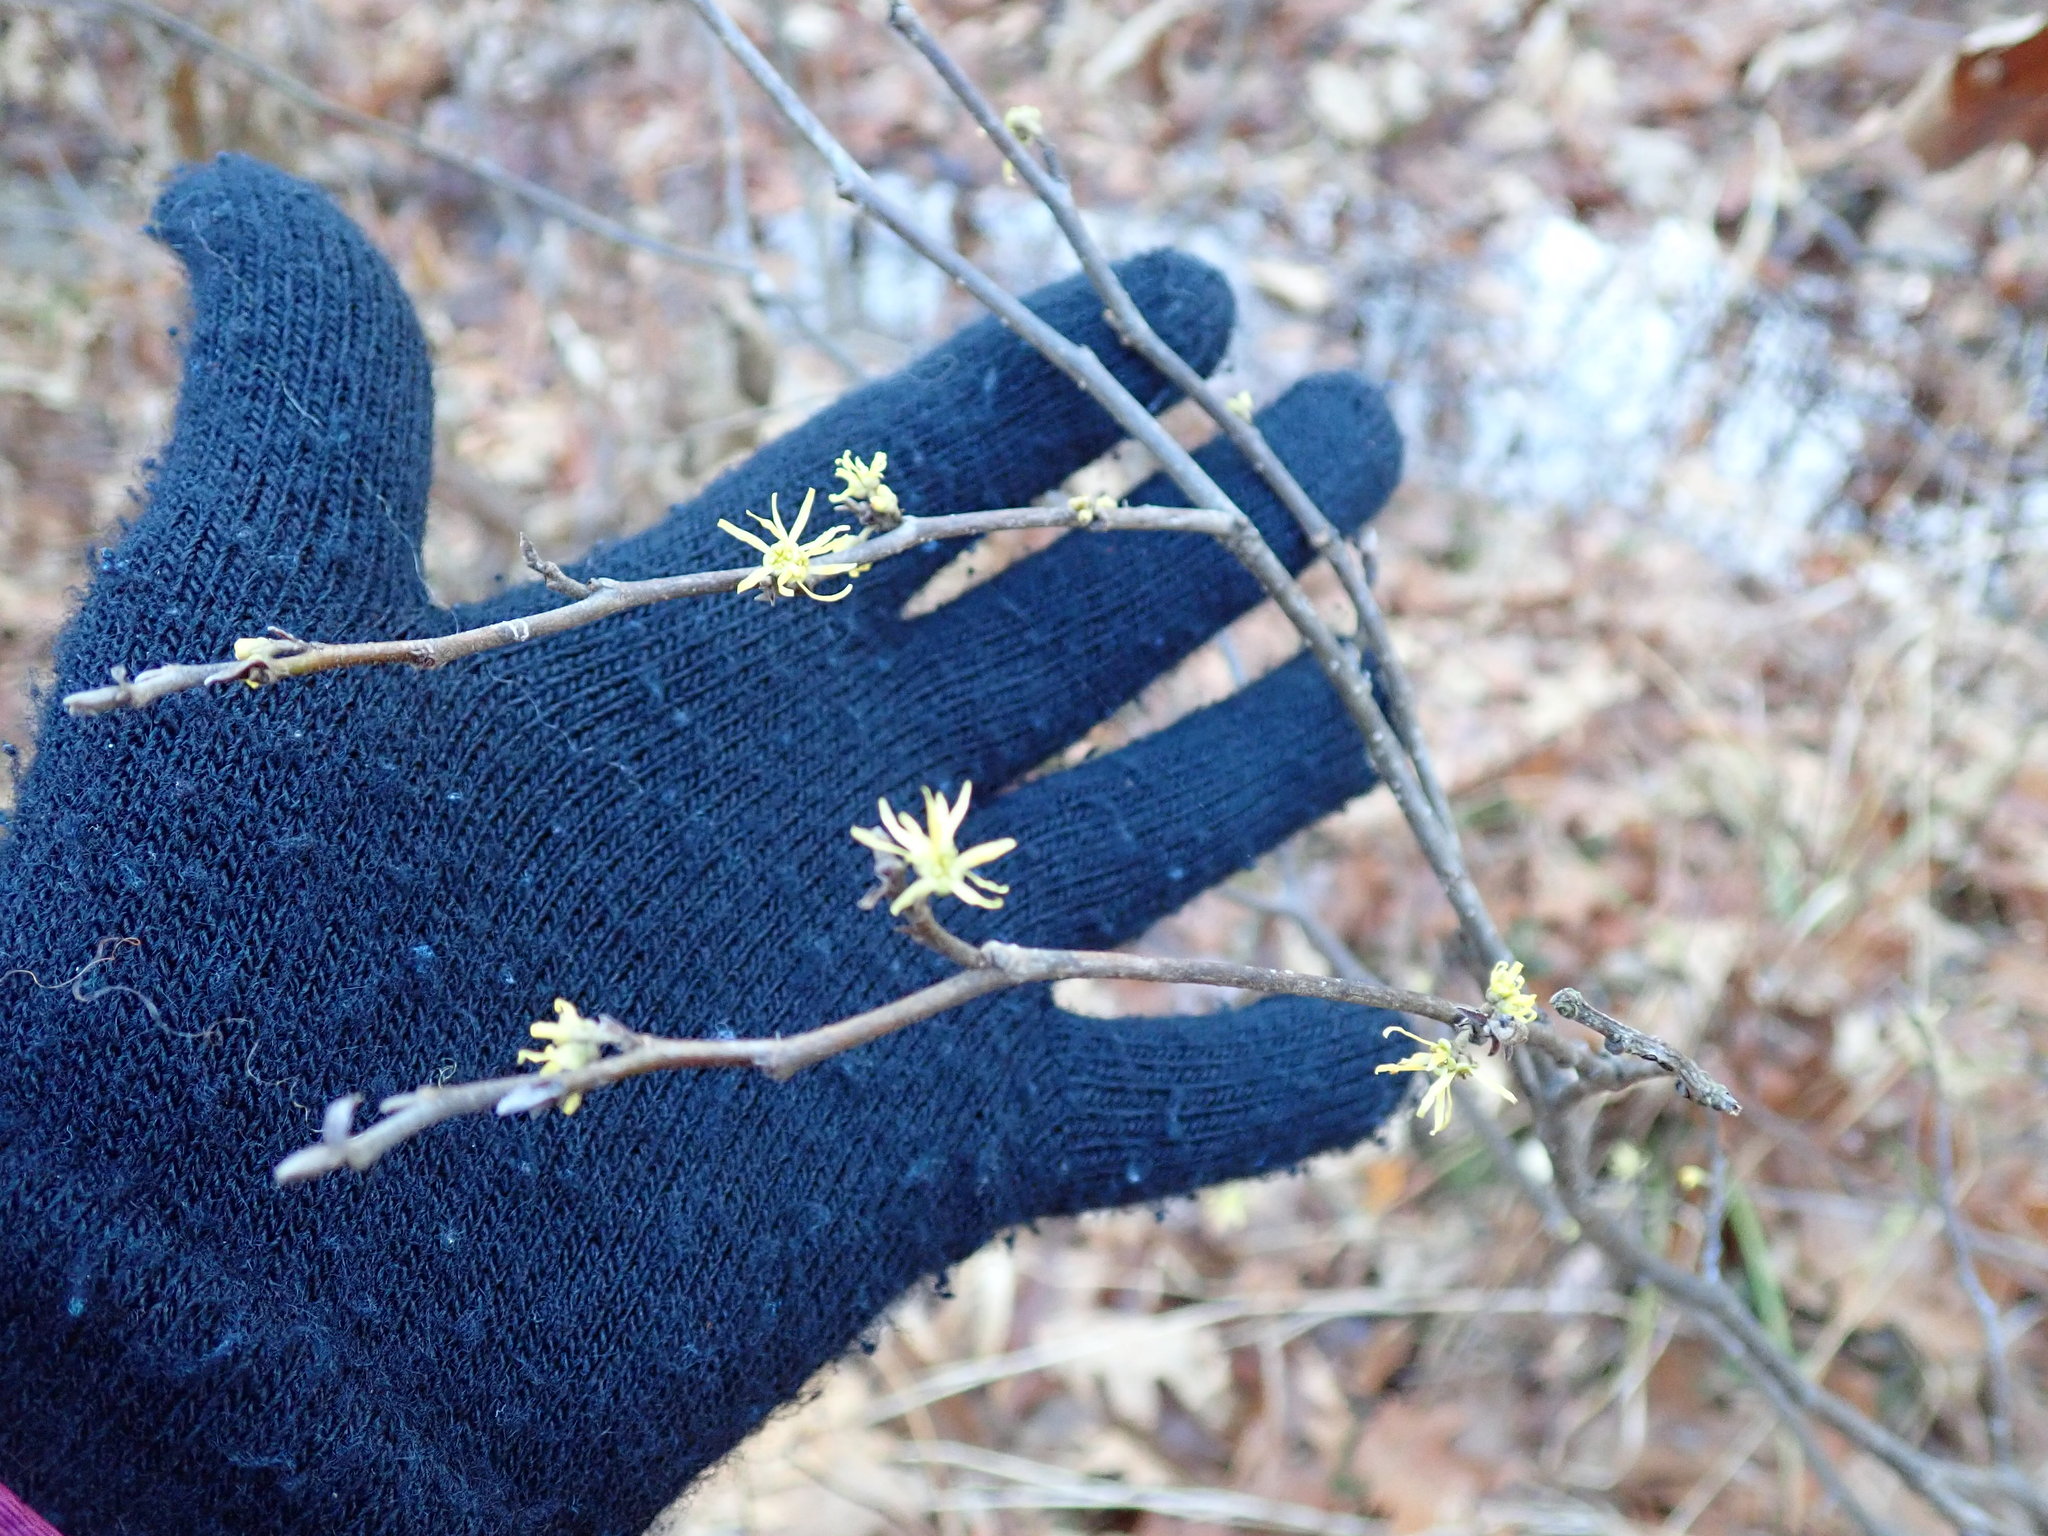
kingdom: Plantae
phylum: Tracheophyta
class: Magnoliopsida
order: Saxifragales
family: Hamamelidaceae
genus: Hamamelis
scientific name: Hamamelis virginiana
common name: Witch-hazel
